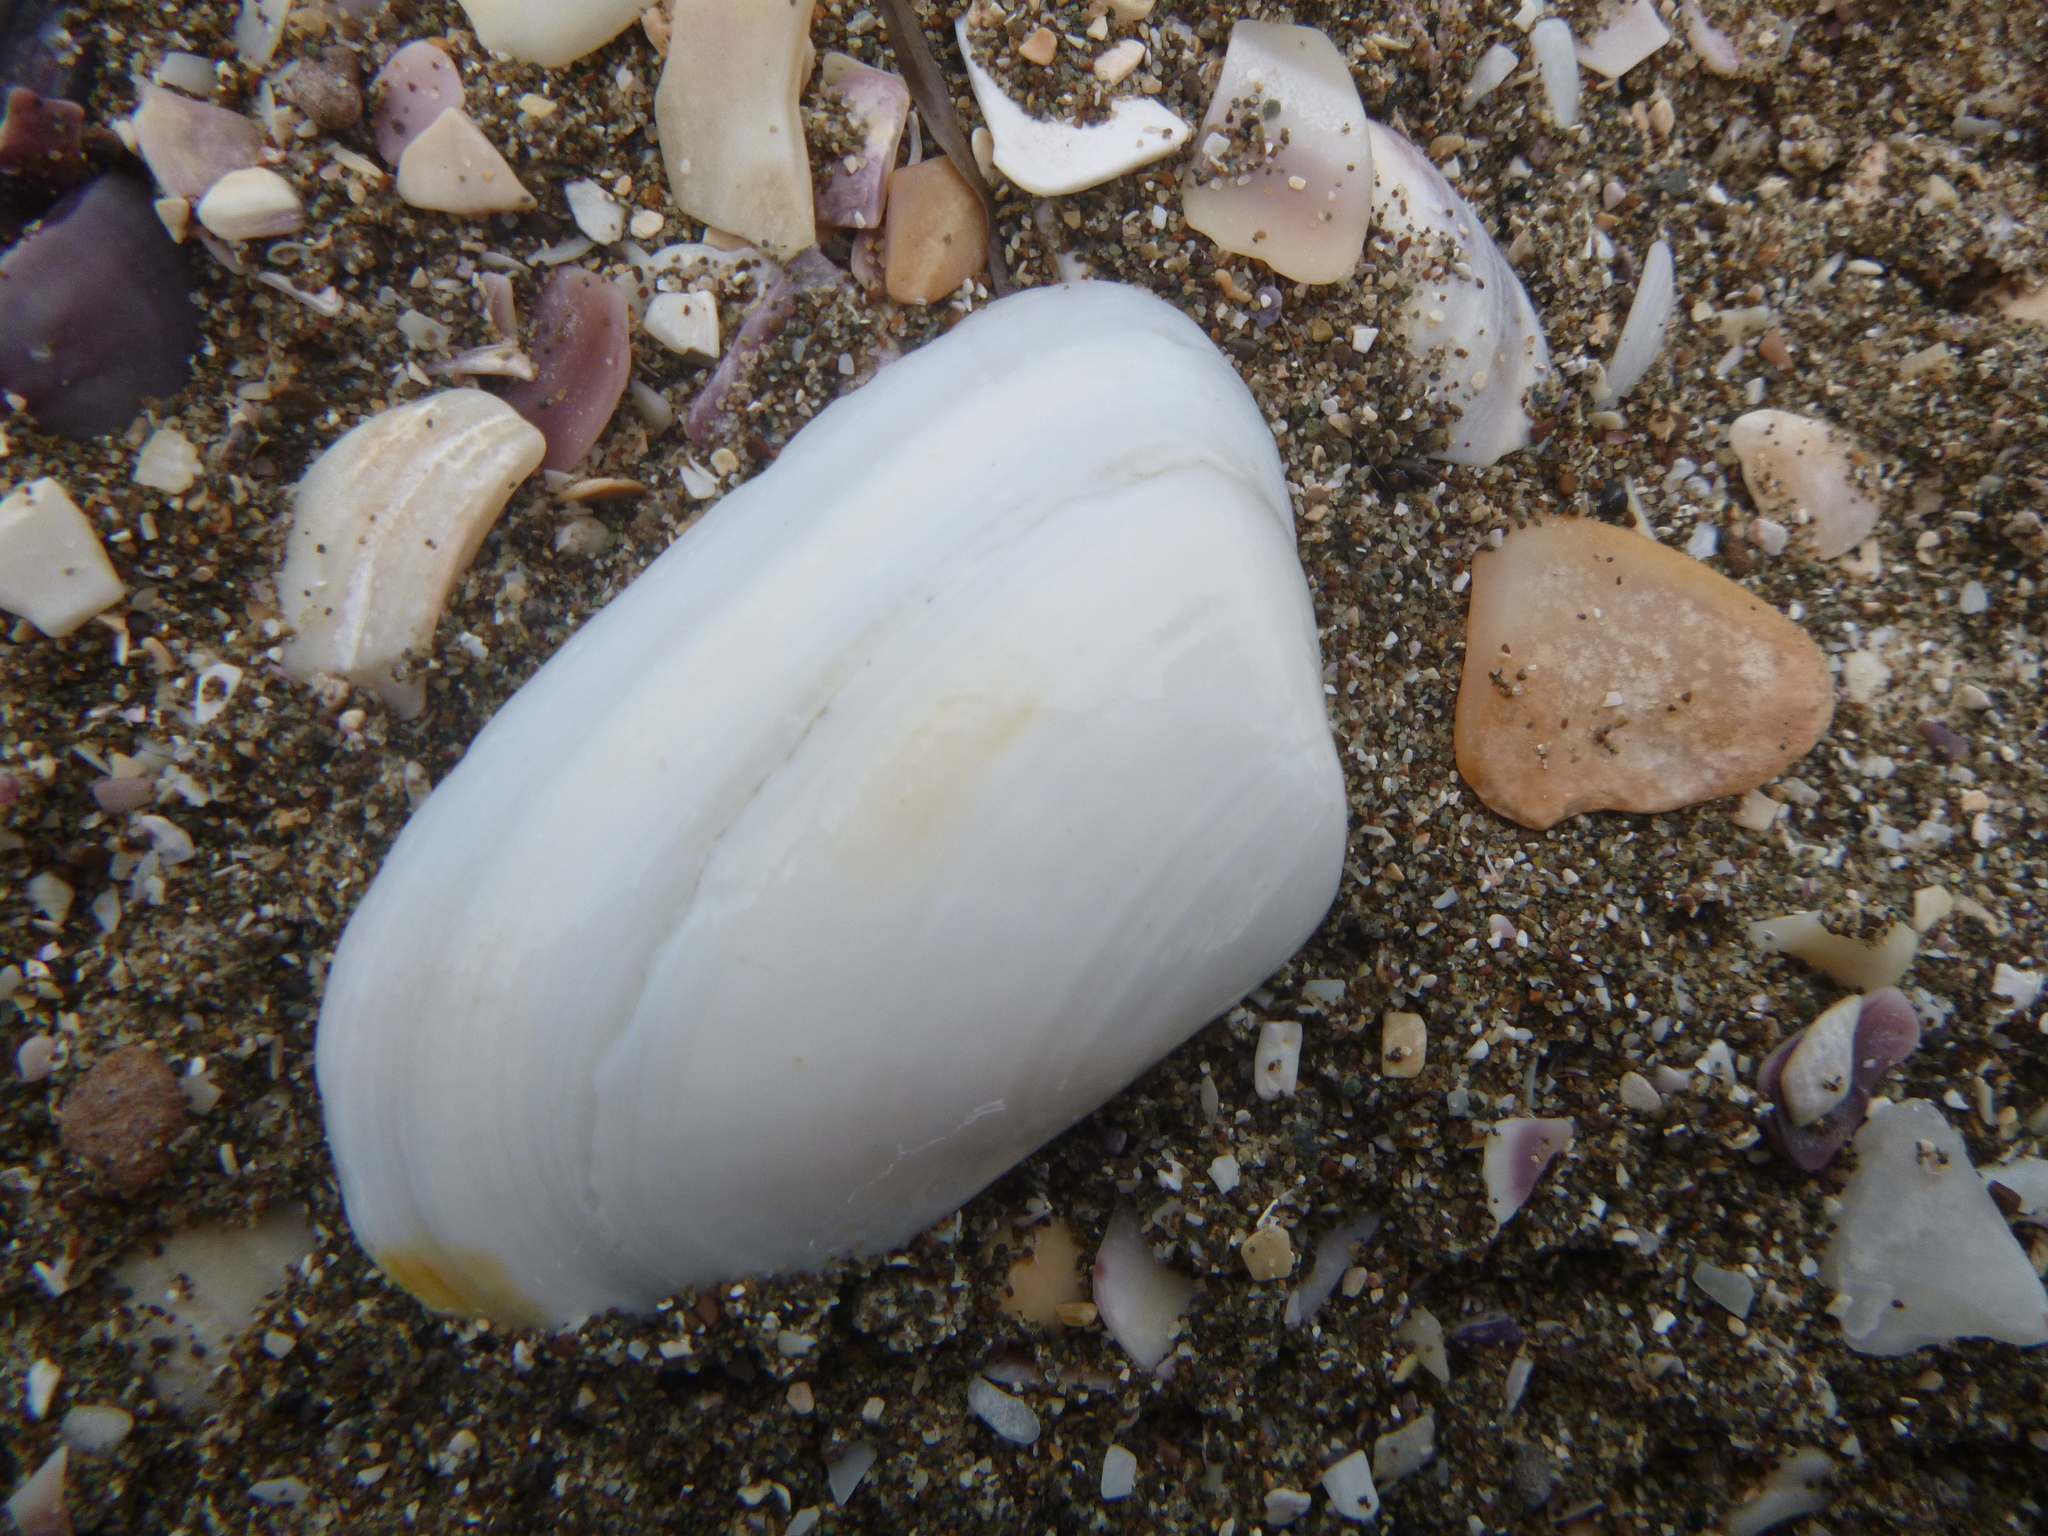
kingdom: Animalia
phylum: Mollusca
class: Bivalvia
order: Venerida
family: Mesodesmatidae
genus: Paphies
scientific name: Paphies subtriangulata
